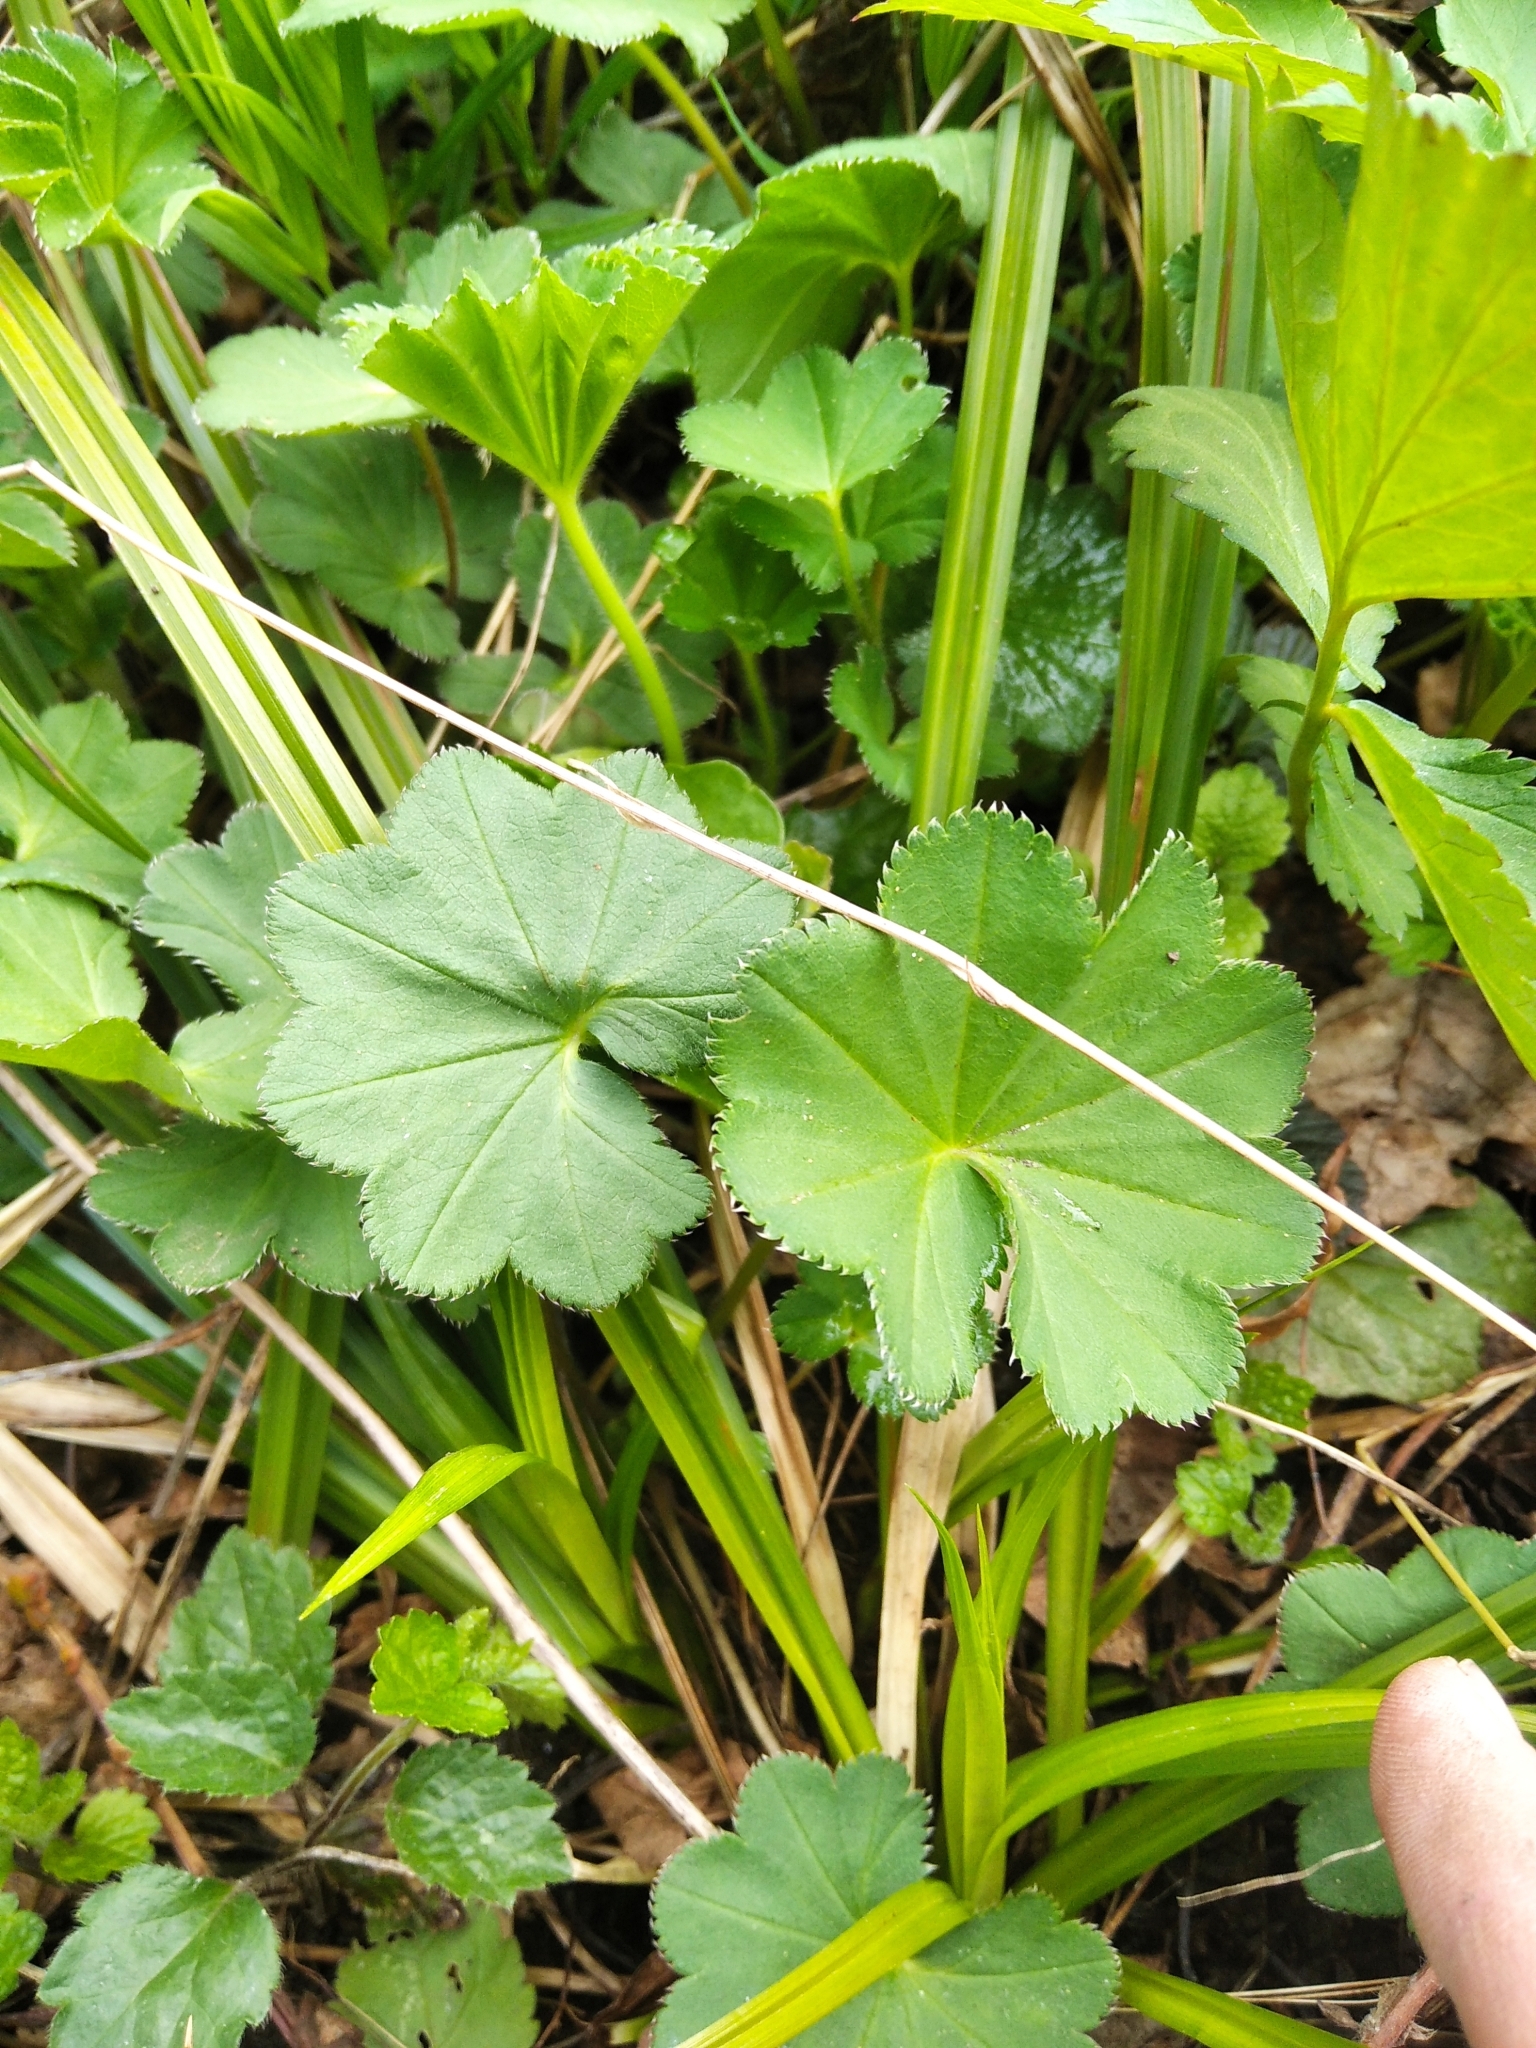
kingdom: Plantae
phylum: Tracheophyta
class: Magnoliopsida
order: Rosales
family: Rosaceae
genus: Alchemilla
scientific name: Alchemilla
